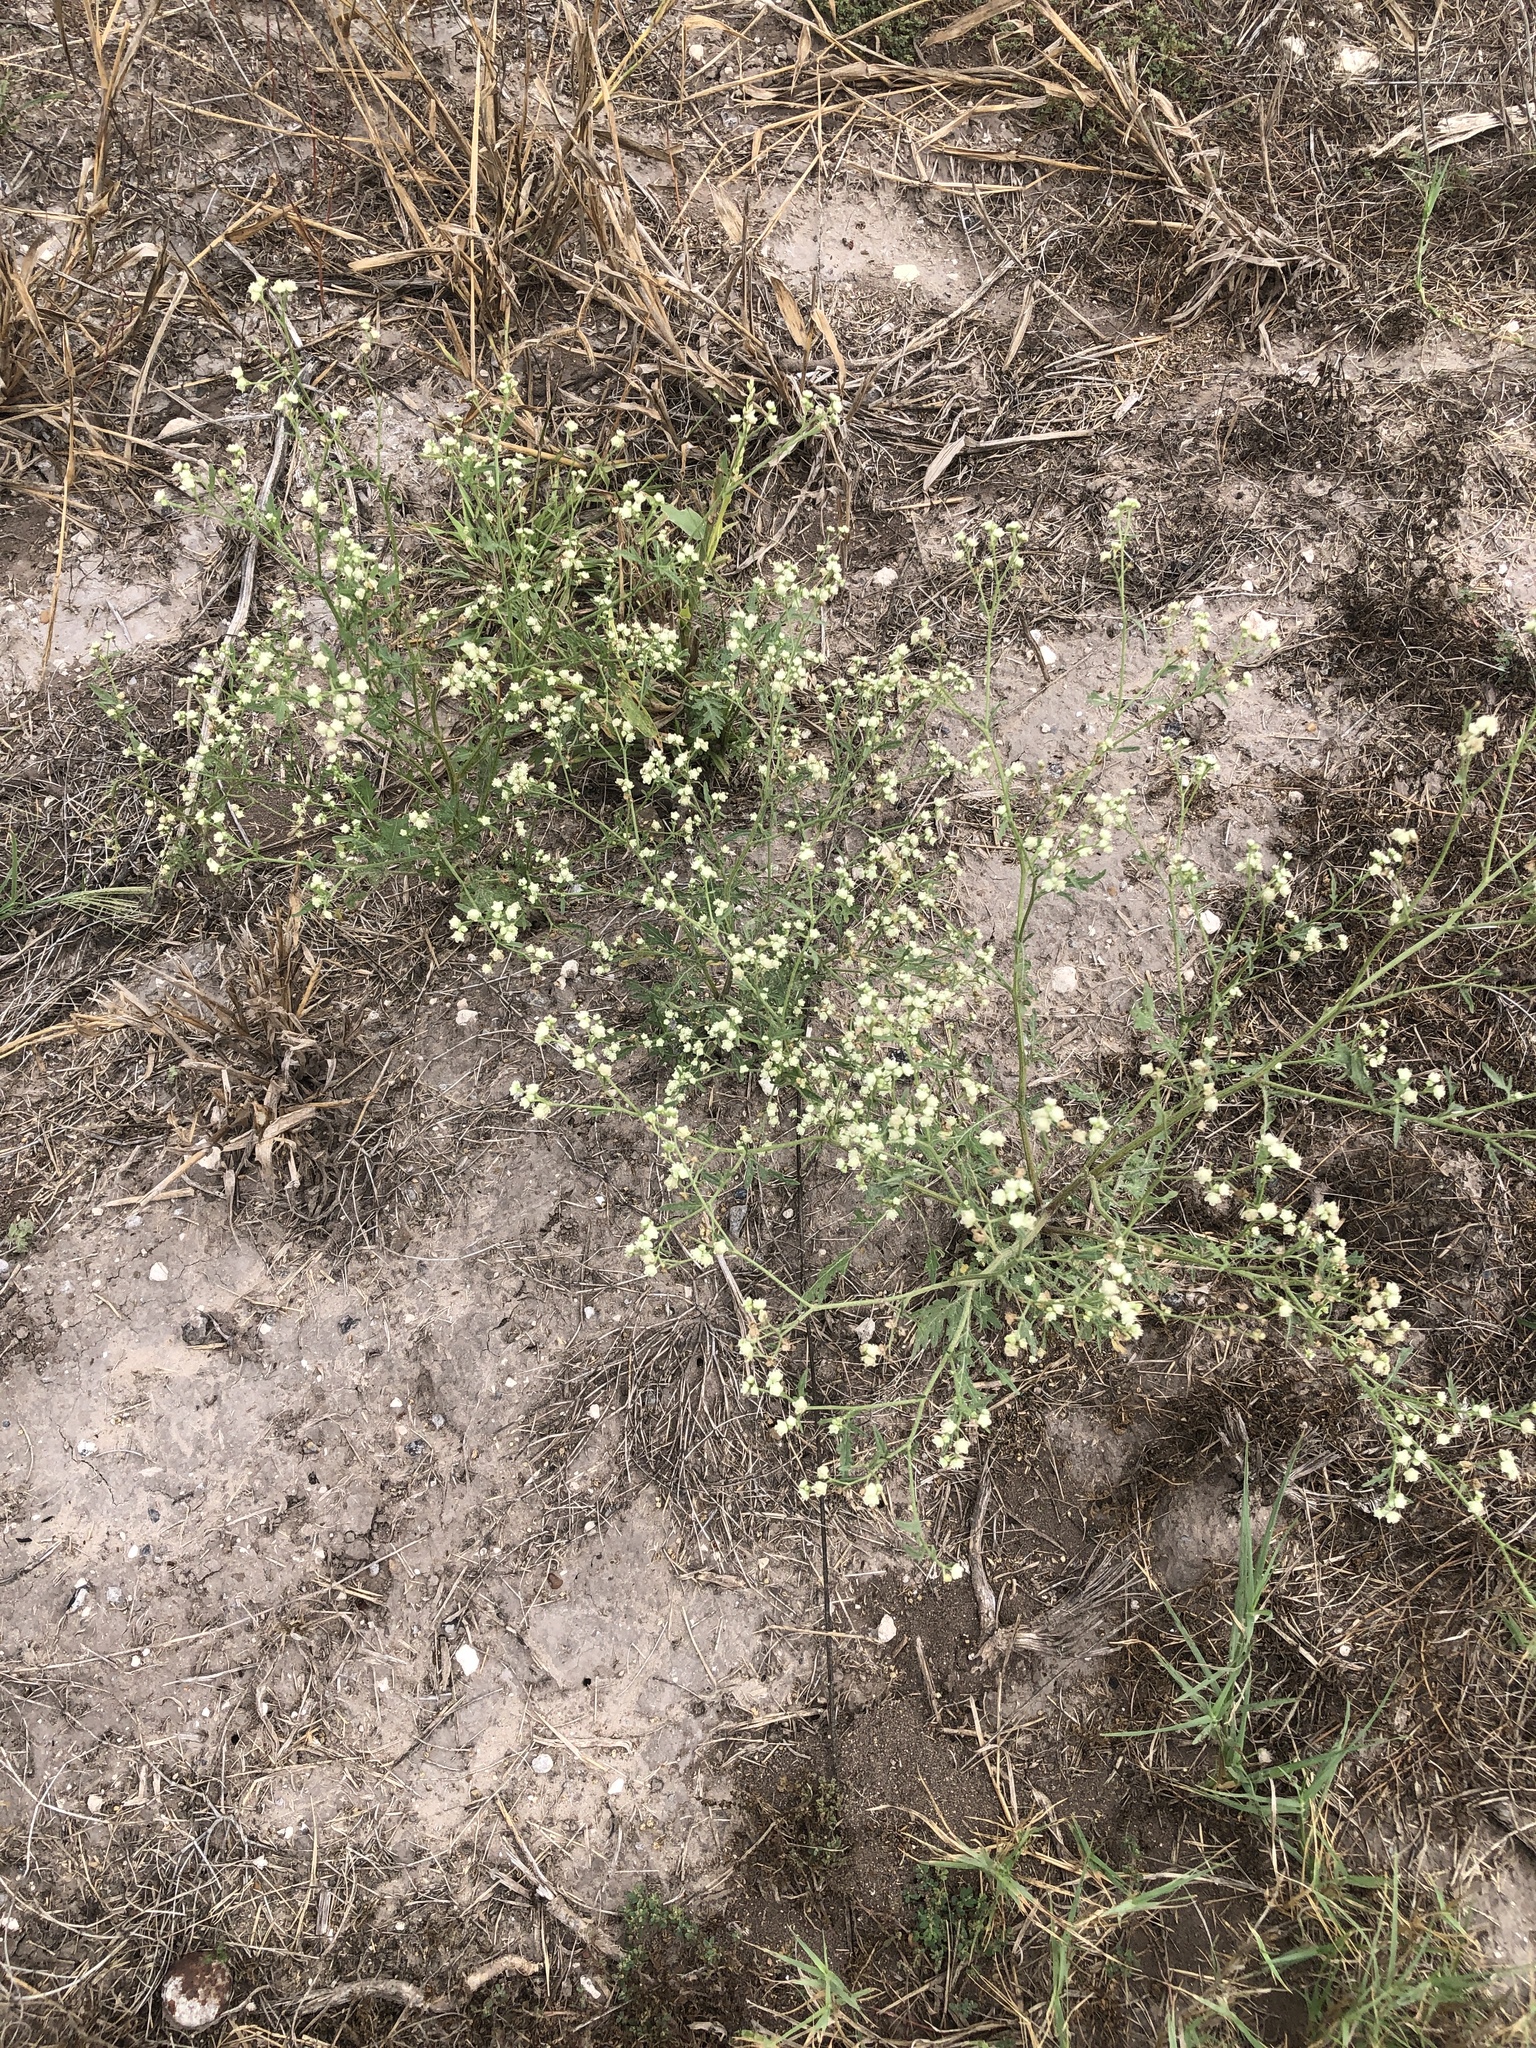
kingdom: Plantae
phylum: Tracheophyta
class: Magnoliopsida
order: Asterales
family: Asteraceae
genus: Parthenium
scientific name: Parthenium hysterophorus
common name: Santa maria feverfew
